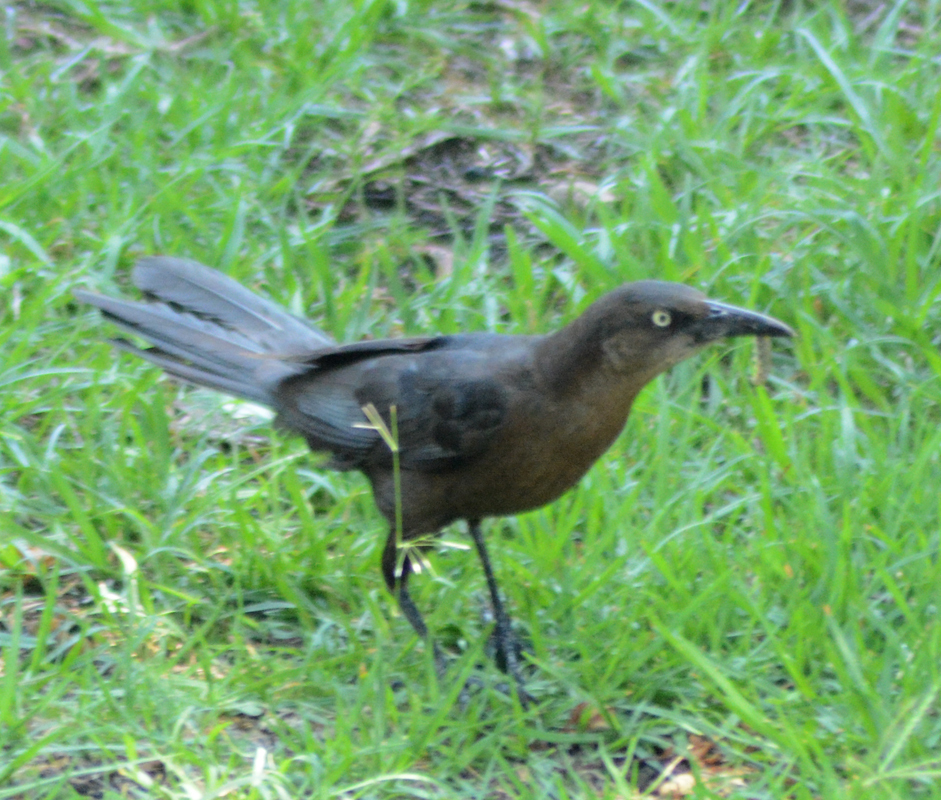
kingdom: Animalia
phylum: Chordata
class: Aves
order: Passeriformes
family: Icteridae
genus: Quiscalus
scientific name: Quiscalus mexicanus
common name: Great-tailed grackle
